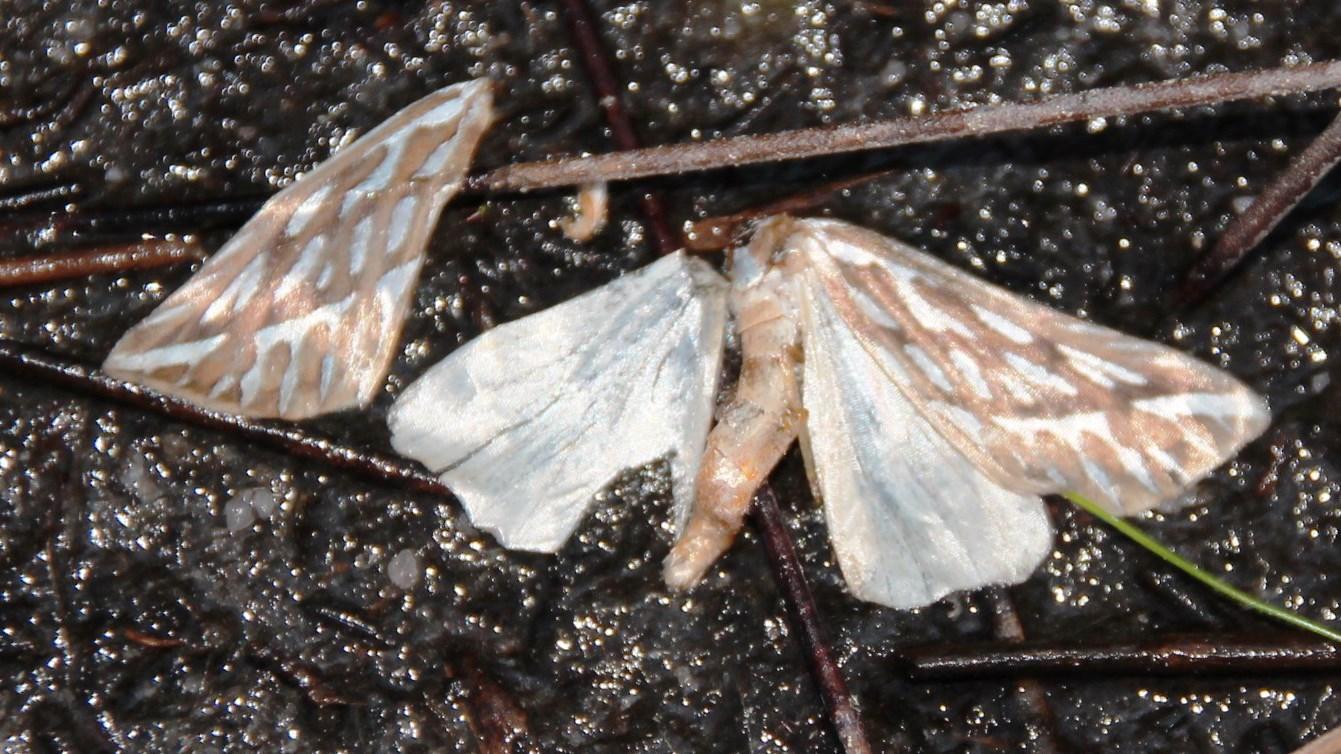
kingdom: Animalia
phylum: Arthropoda
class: Insecta
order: Lepidoptera
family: Geometridae
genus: Argyrophora
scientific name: Argyrophora trofonia
